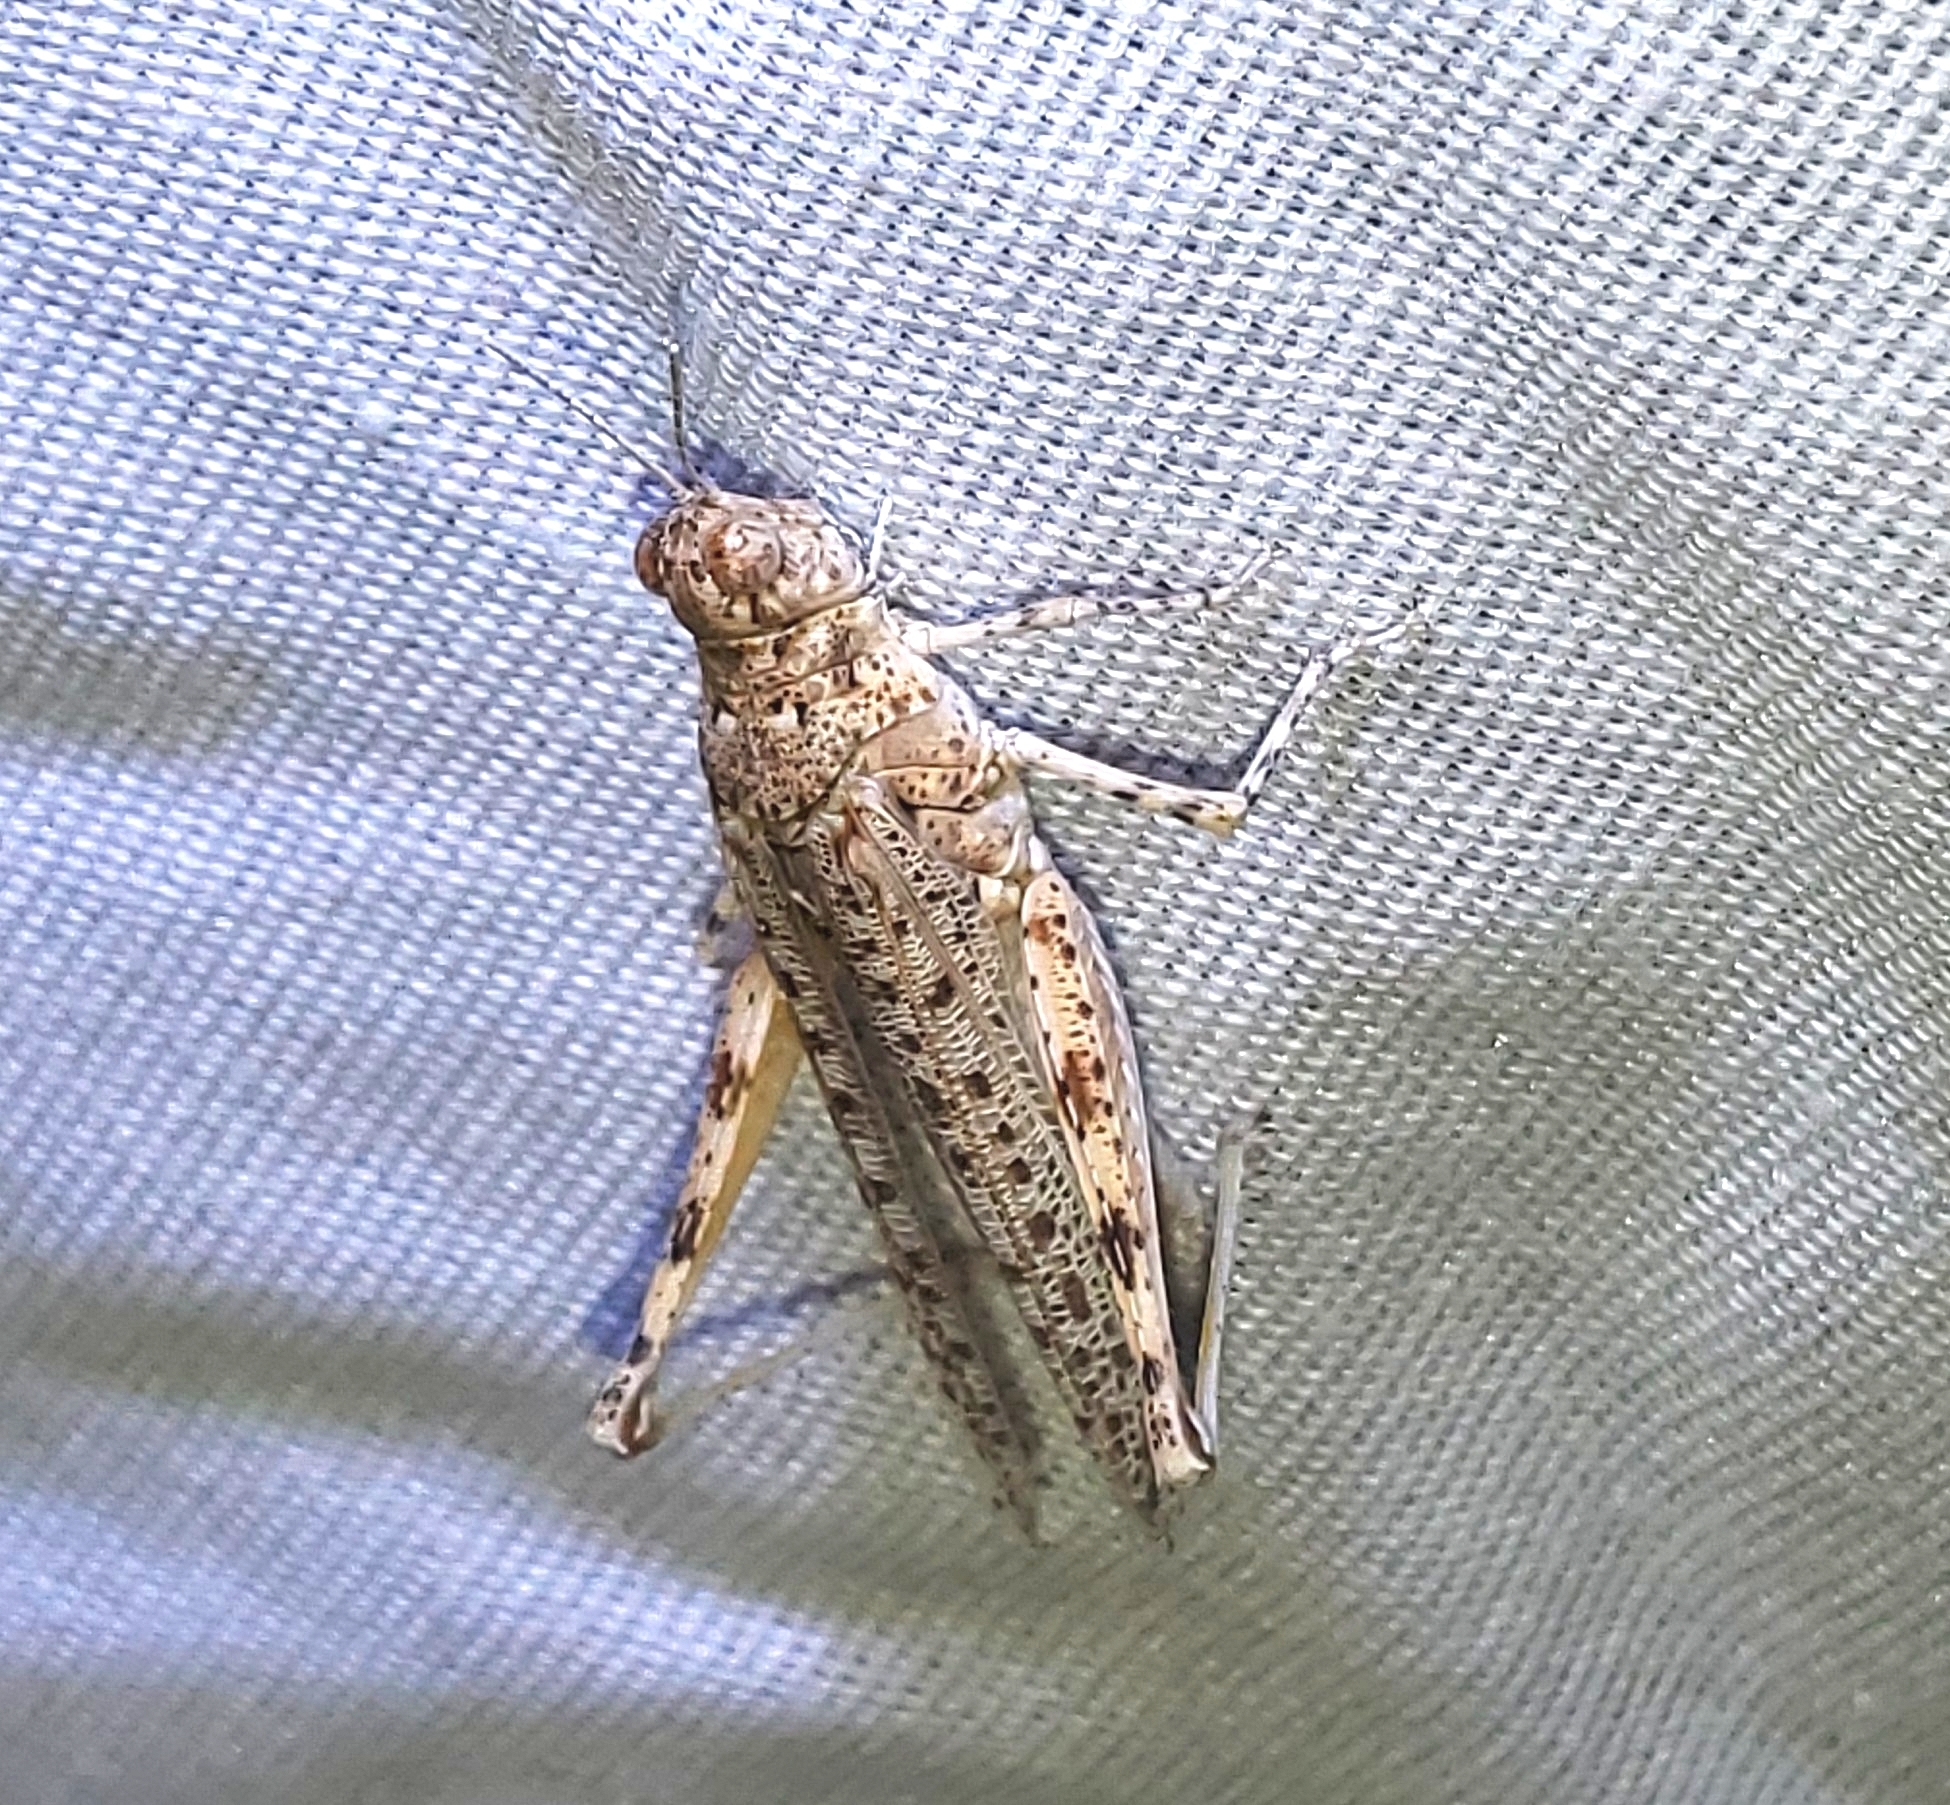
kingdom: Animalia
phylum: Arthropoda
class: Insecta
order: Orthoptera
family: Acrididae
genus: Xeracris
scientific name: Xeracris snowi
